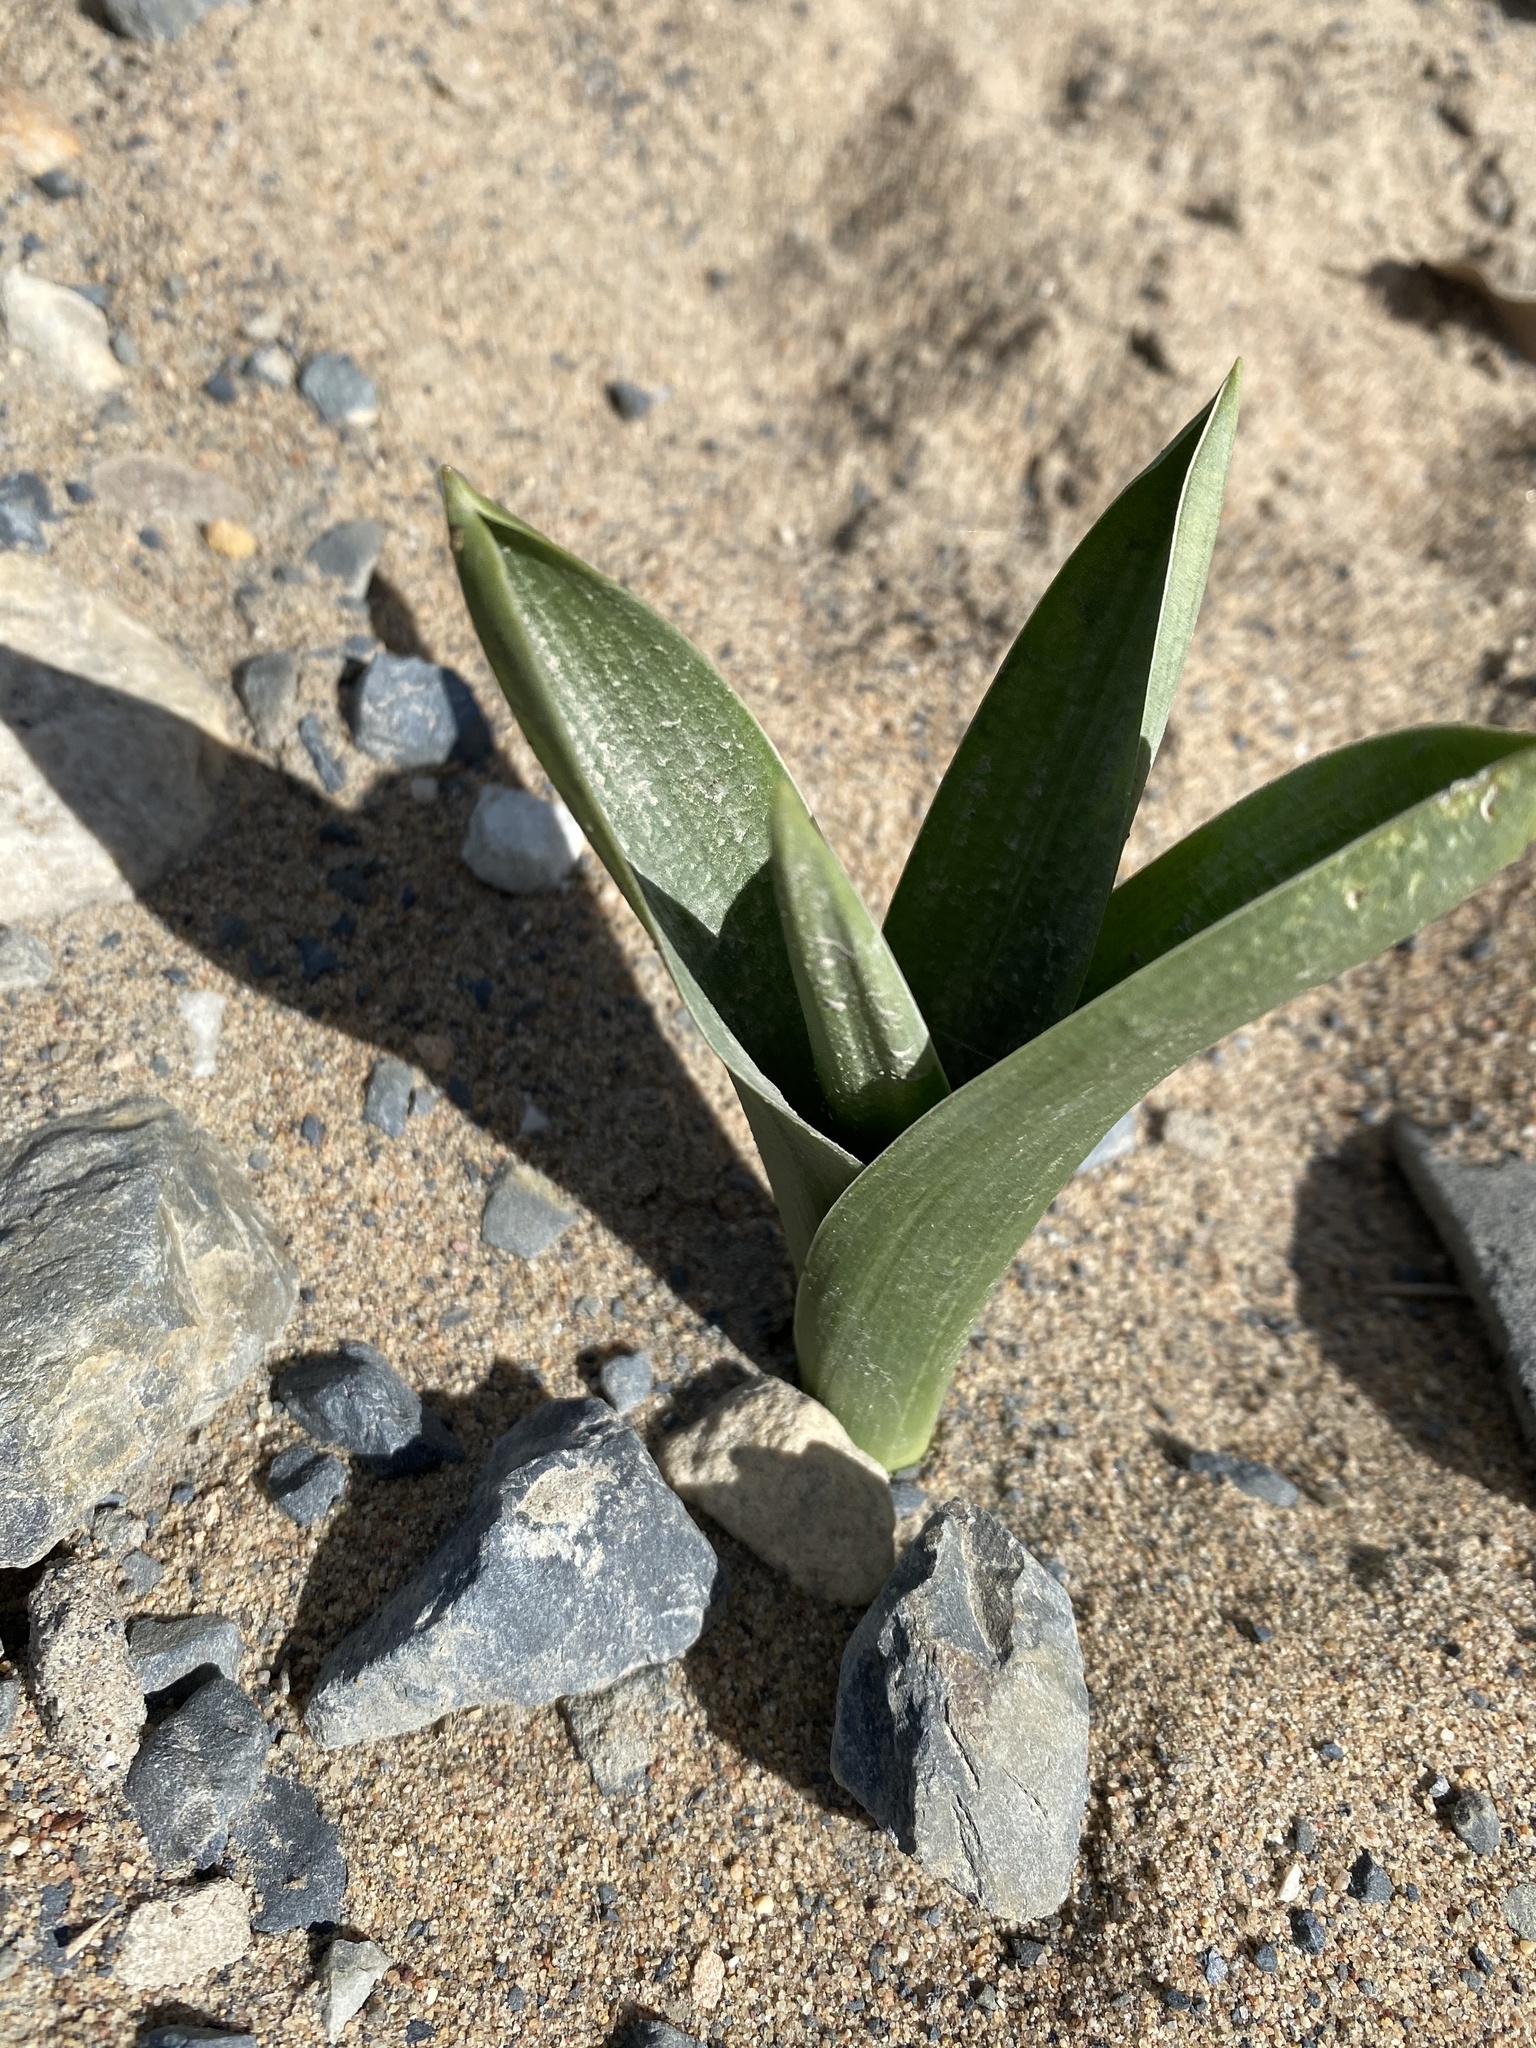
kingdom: Plantae
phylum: Tracheophyta
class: Liliopsida
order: Asparagales
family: Asparagaceae
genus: Drimia
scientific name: Drimia capensis
